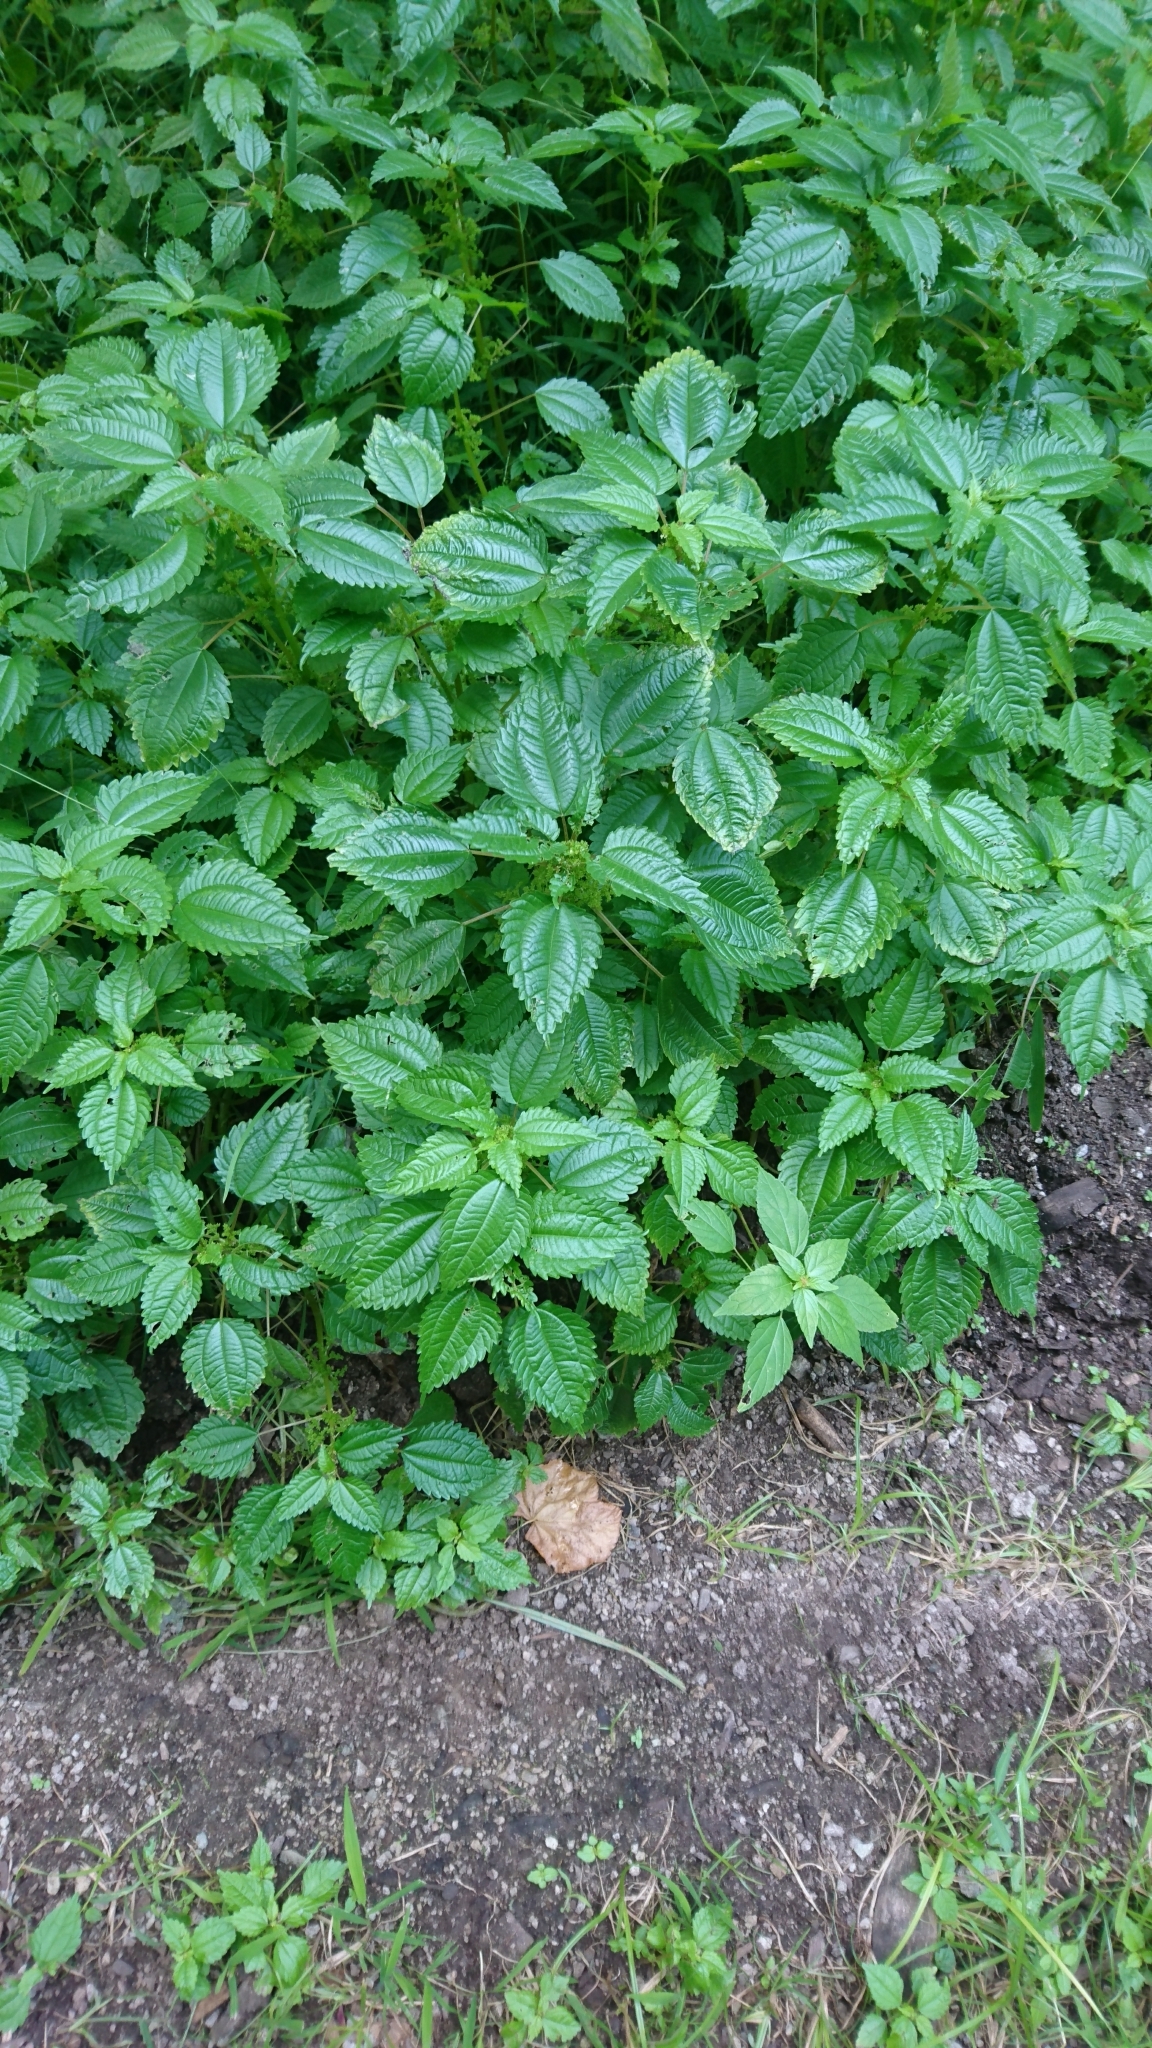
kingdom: Plantae
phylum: Tracheophyta
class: Magnoliopsida
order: Rosales
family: Urticaceae
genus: Pilea
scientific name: Pilea pumila
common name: Clearweed
